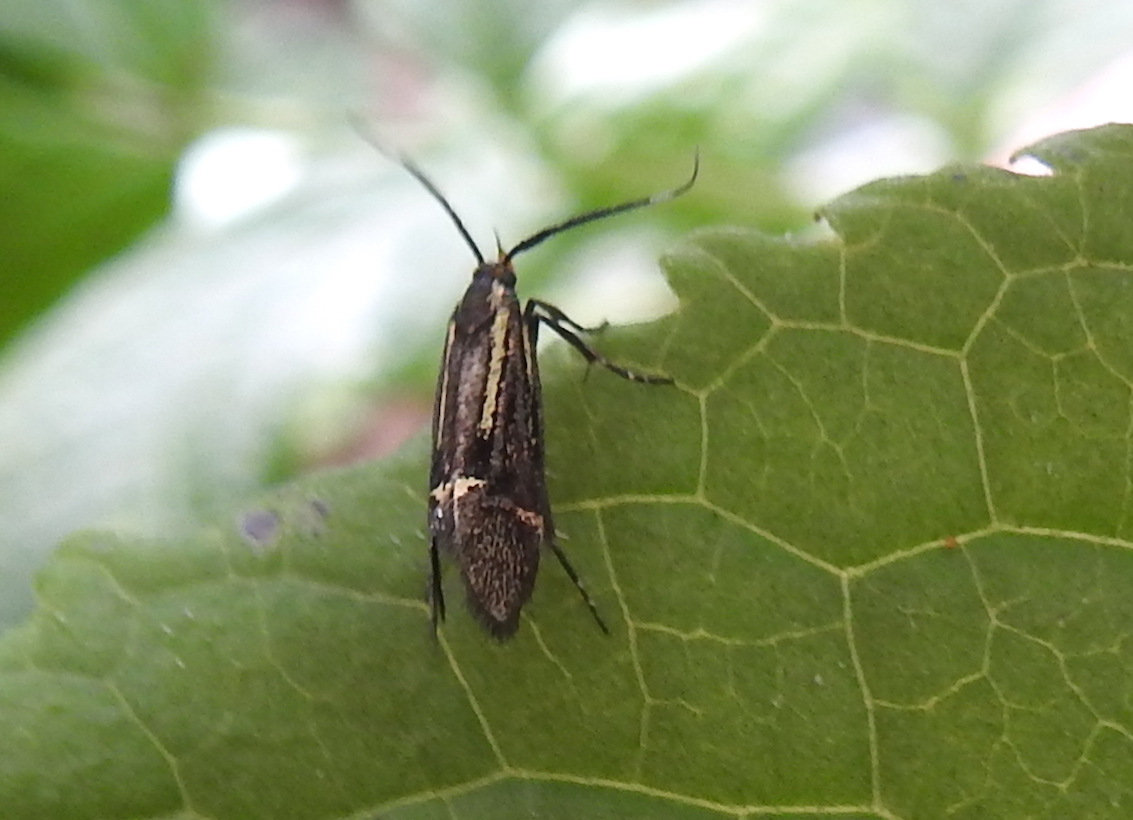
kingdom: Animalia
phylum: Arthropoda
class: Insecta
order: Lepidoptera
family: Oecophoridae
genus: Dafa
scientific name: Dafa Esperia sulphurella
